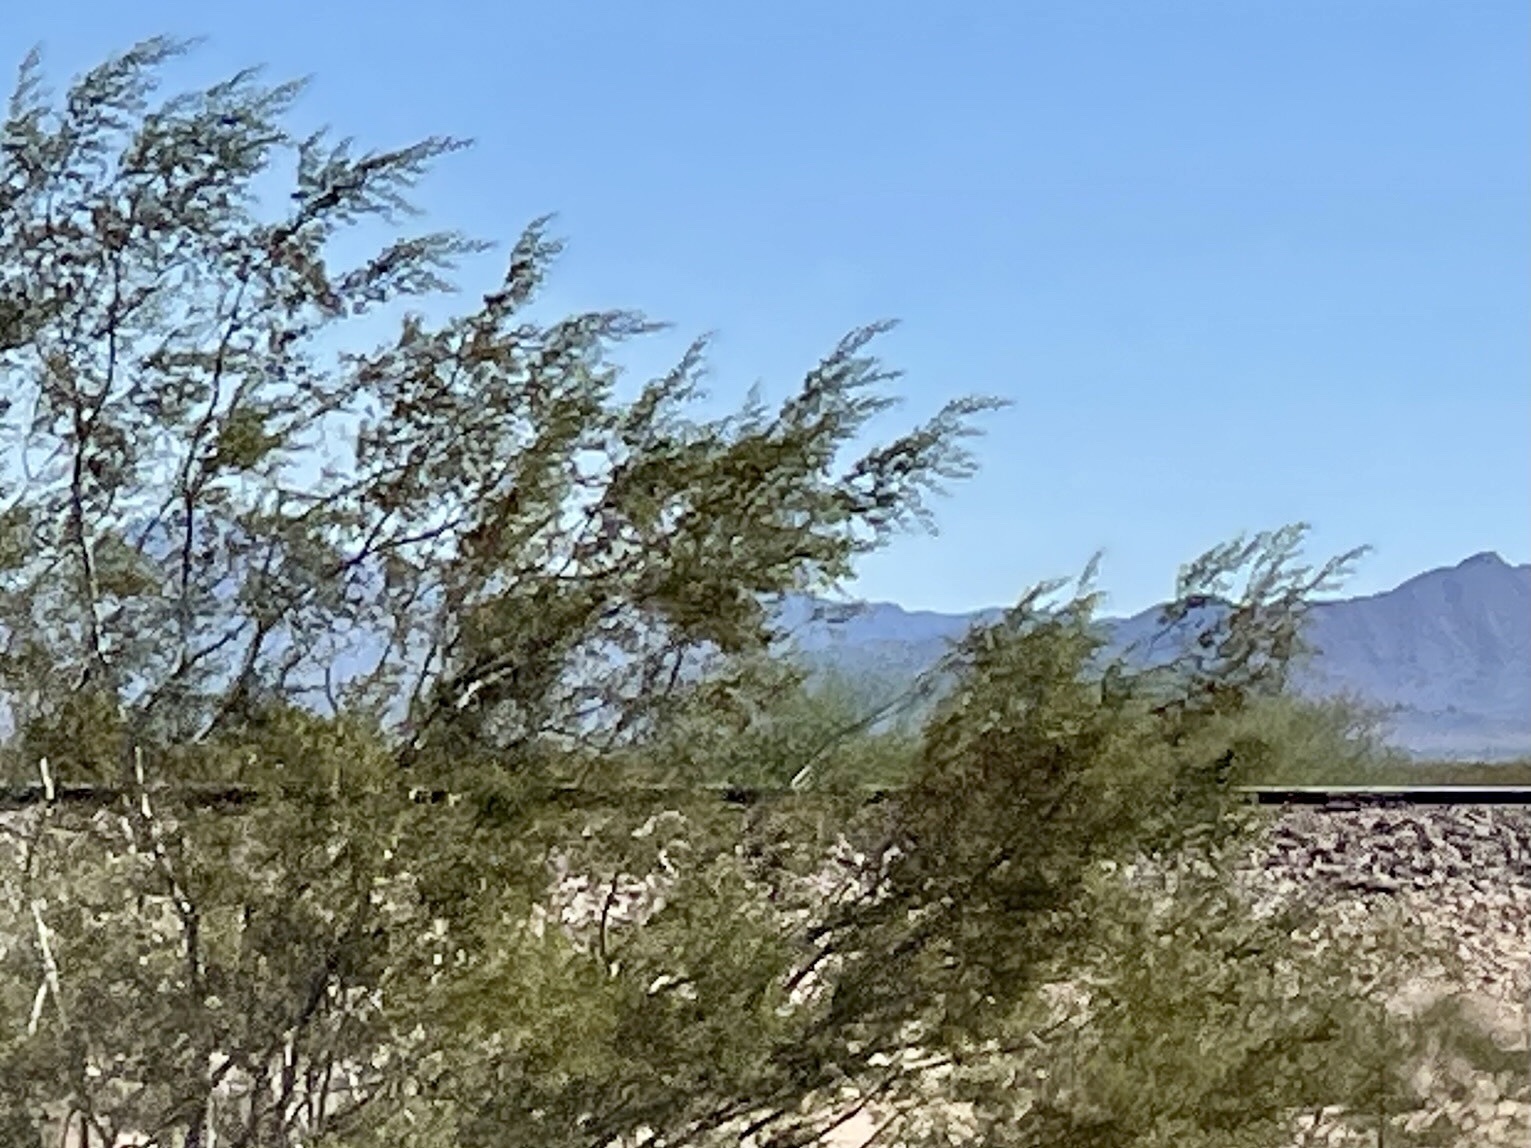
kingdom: Plantae
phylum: Tracheophyta
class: Magnoliopsida
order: Zygophyllales
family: Zygophyllaceae
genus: Larrea
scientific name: Larrea tridentata
